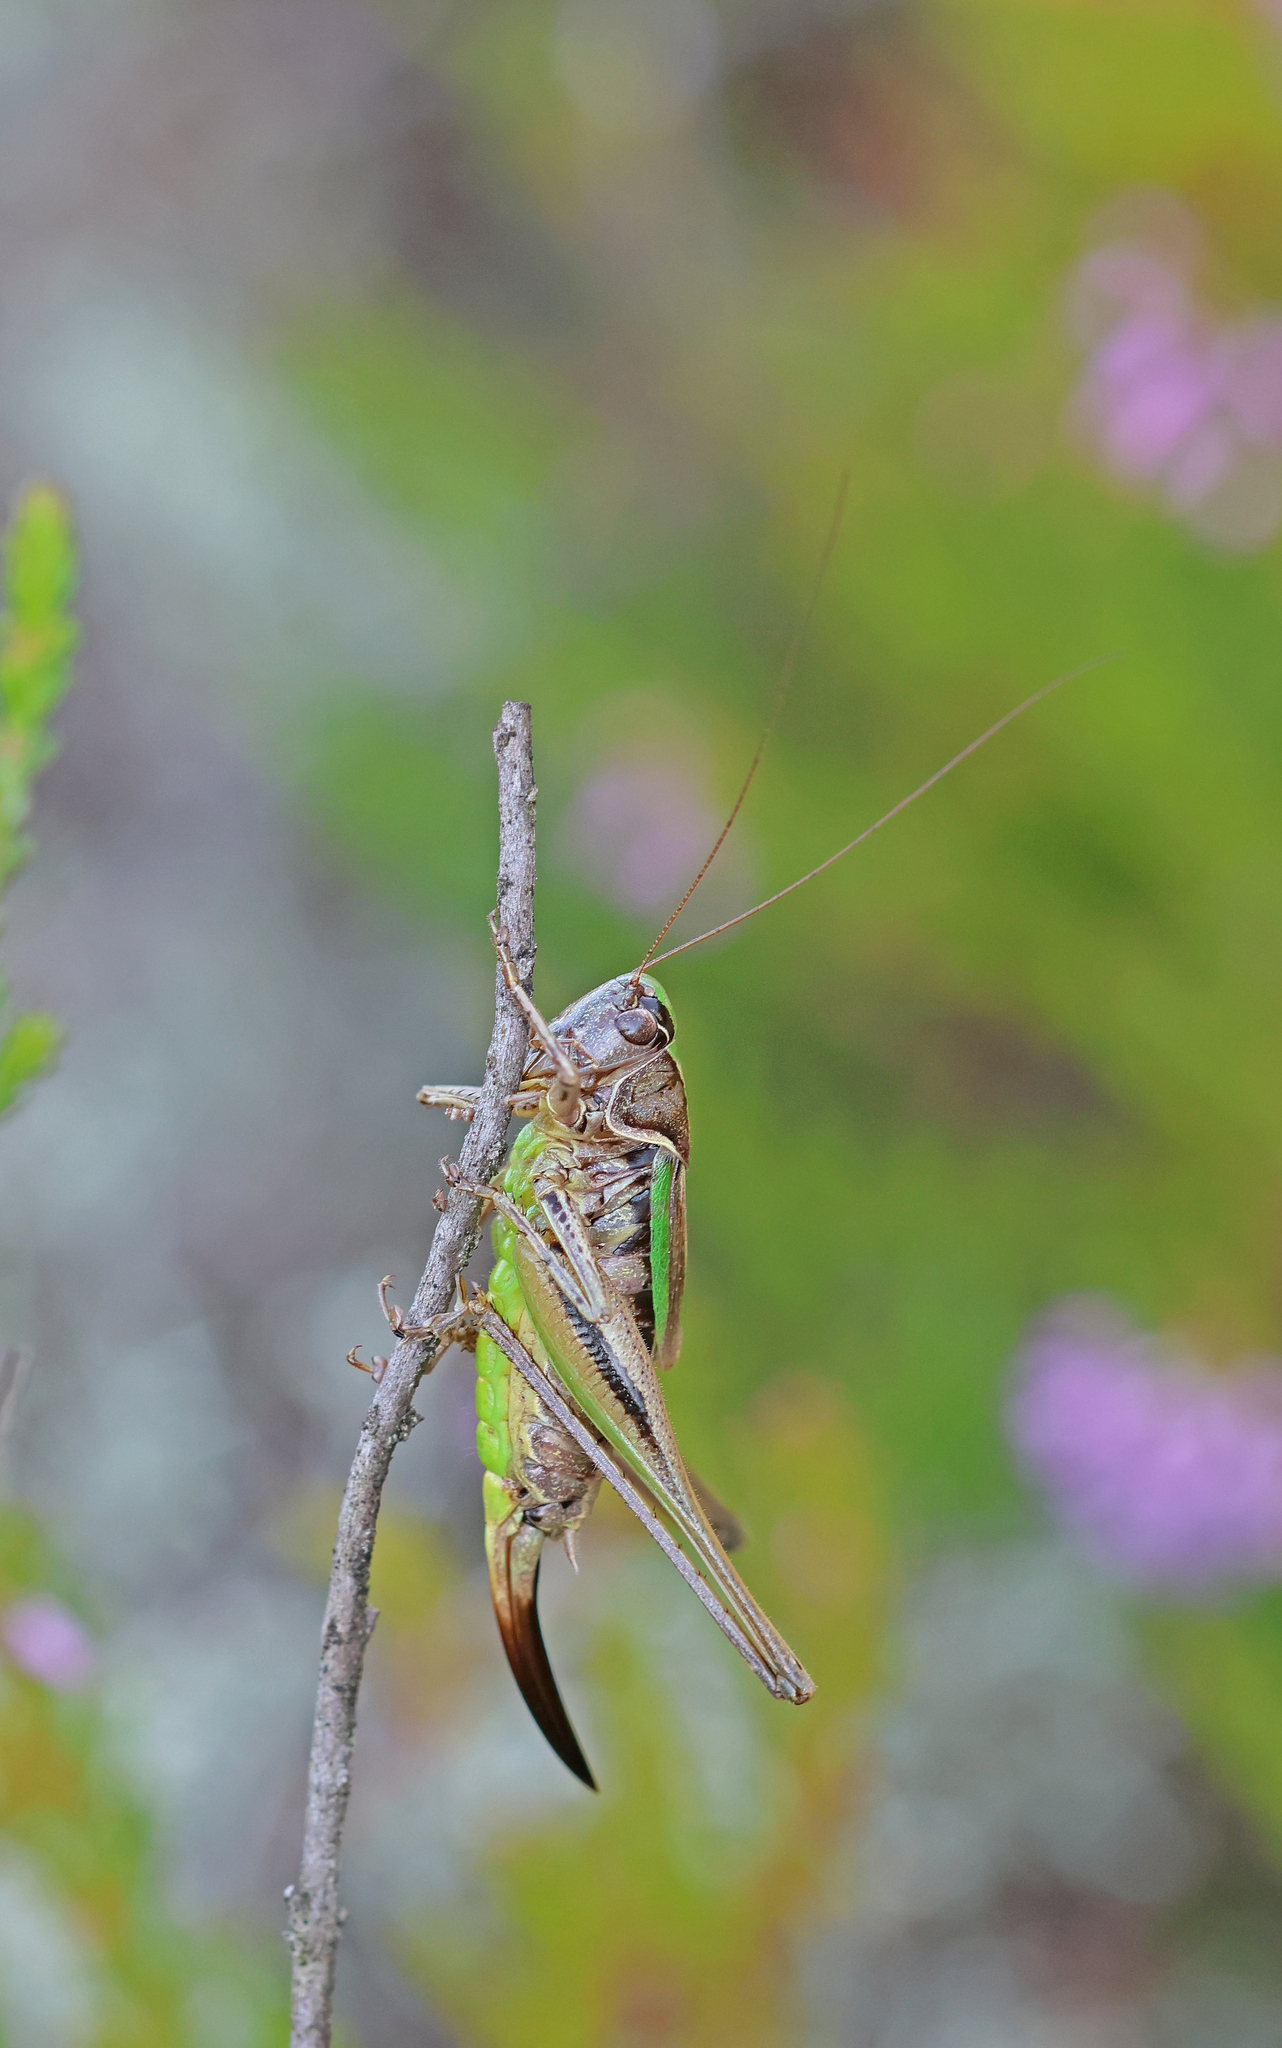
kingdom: Animalia
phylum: Arthropoda
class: Insecta
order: Orthoptera
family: Tettigoniidae
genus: Metrioptera
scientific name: Metrioptera brachyptera
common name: Bog bush-cricket
